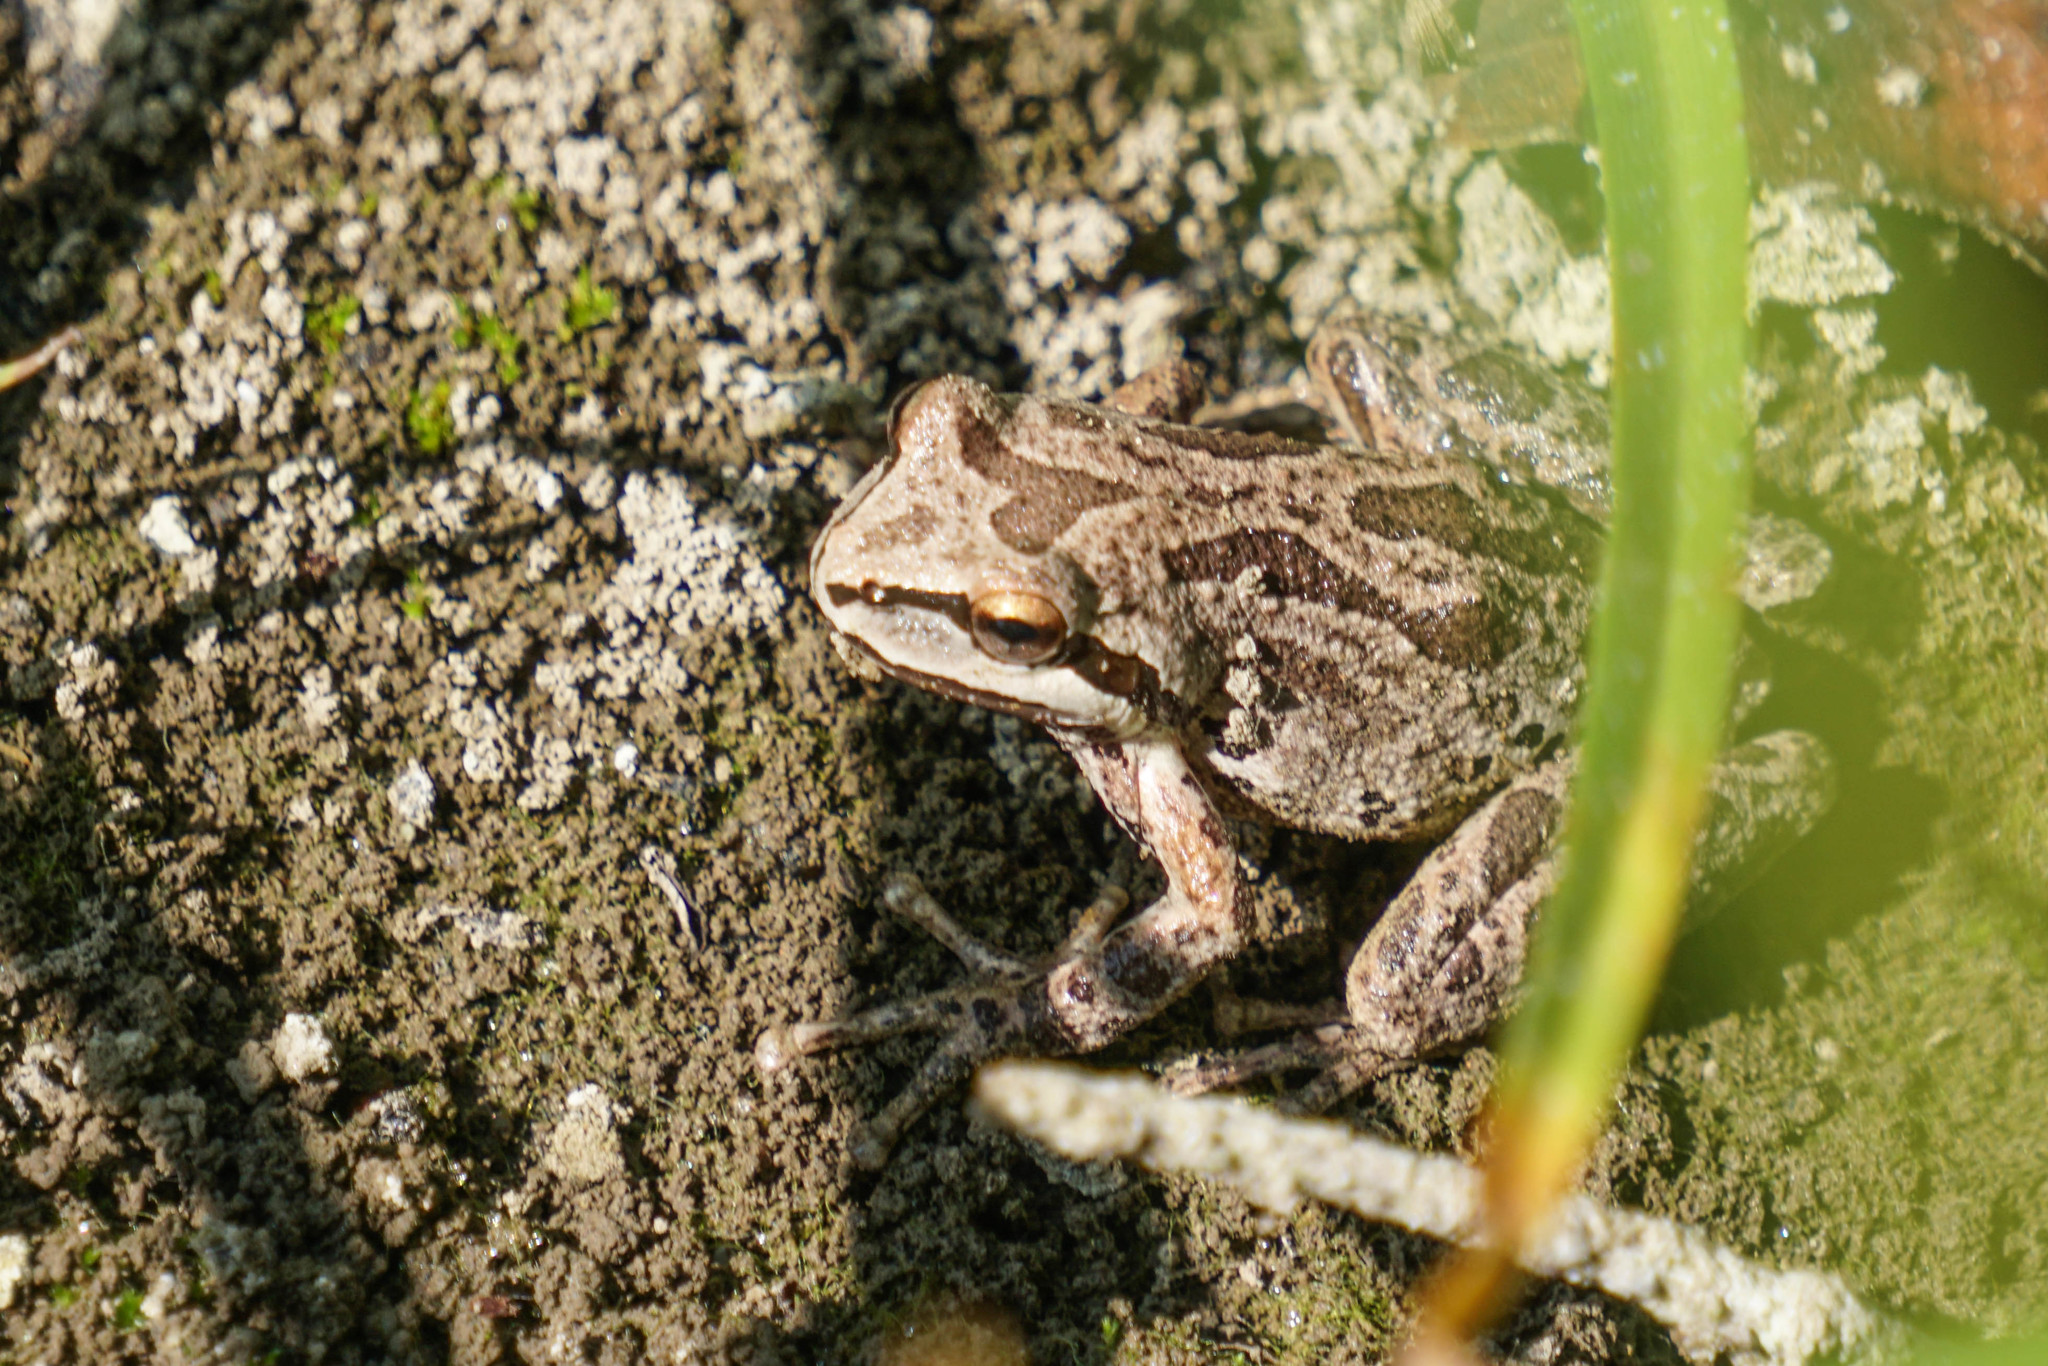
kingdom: Animalia
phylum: Chordata
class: Amphibia
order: Anura
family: Hylidae
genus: Pseudacris
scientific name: Pseudacris regilla
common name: Pacific chorus frog
